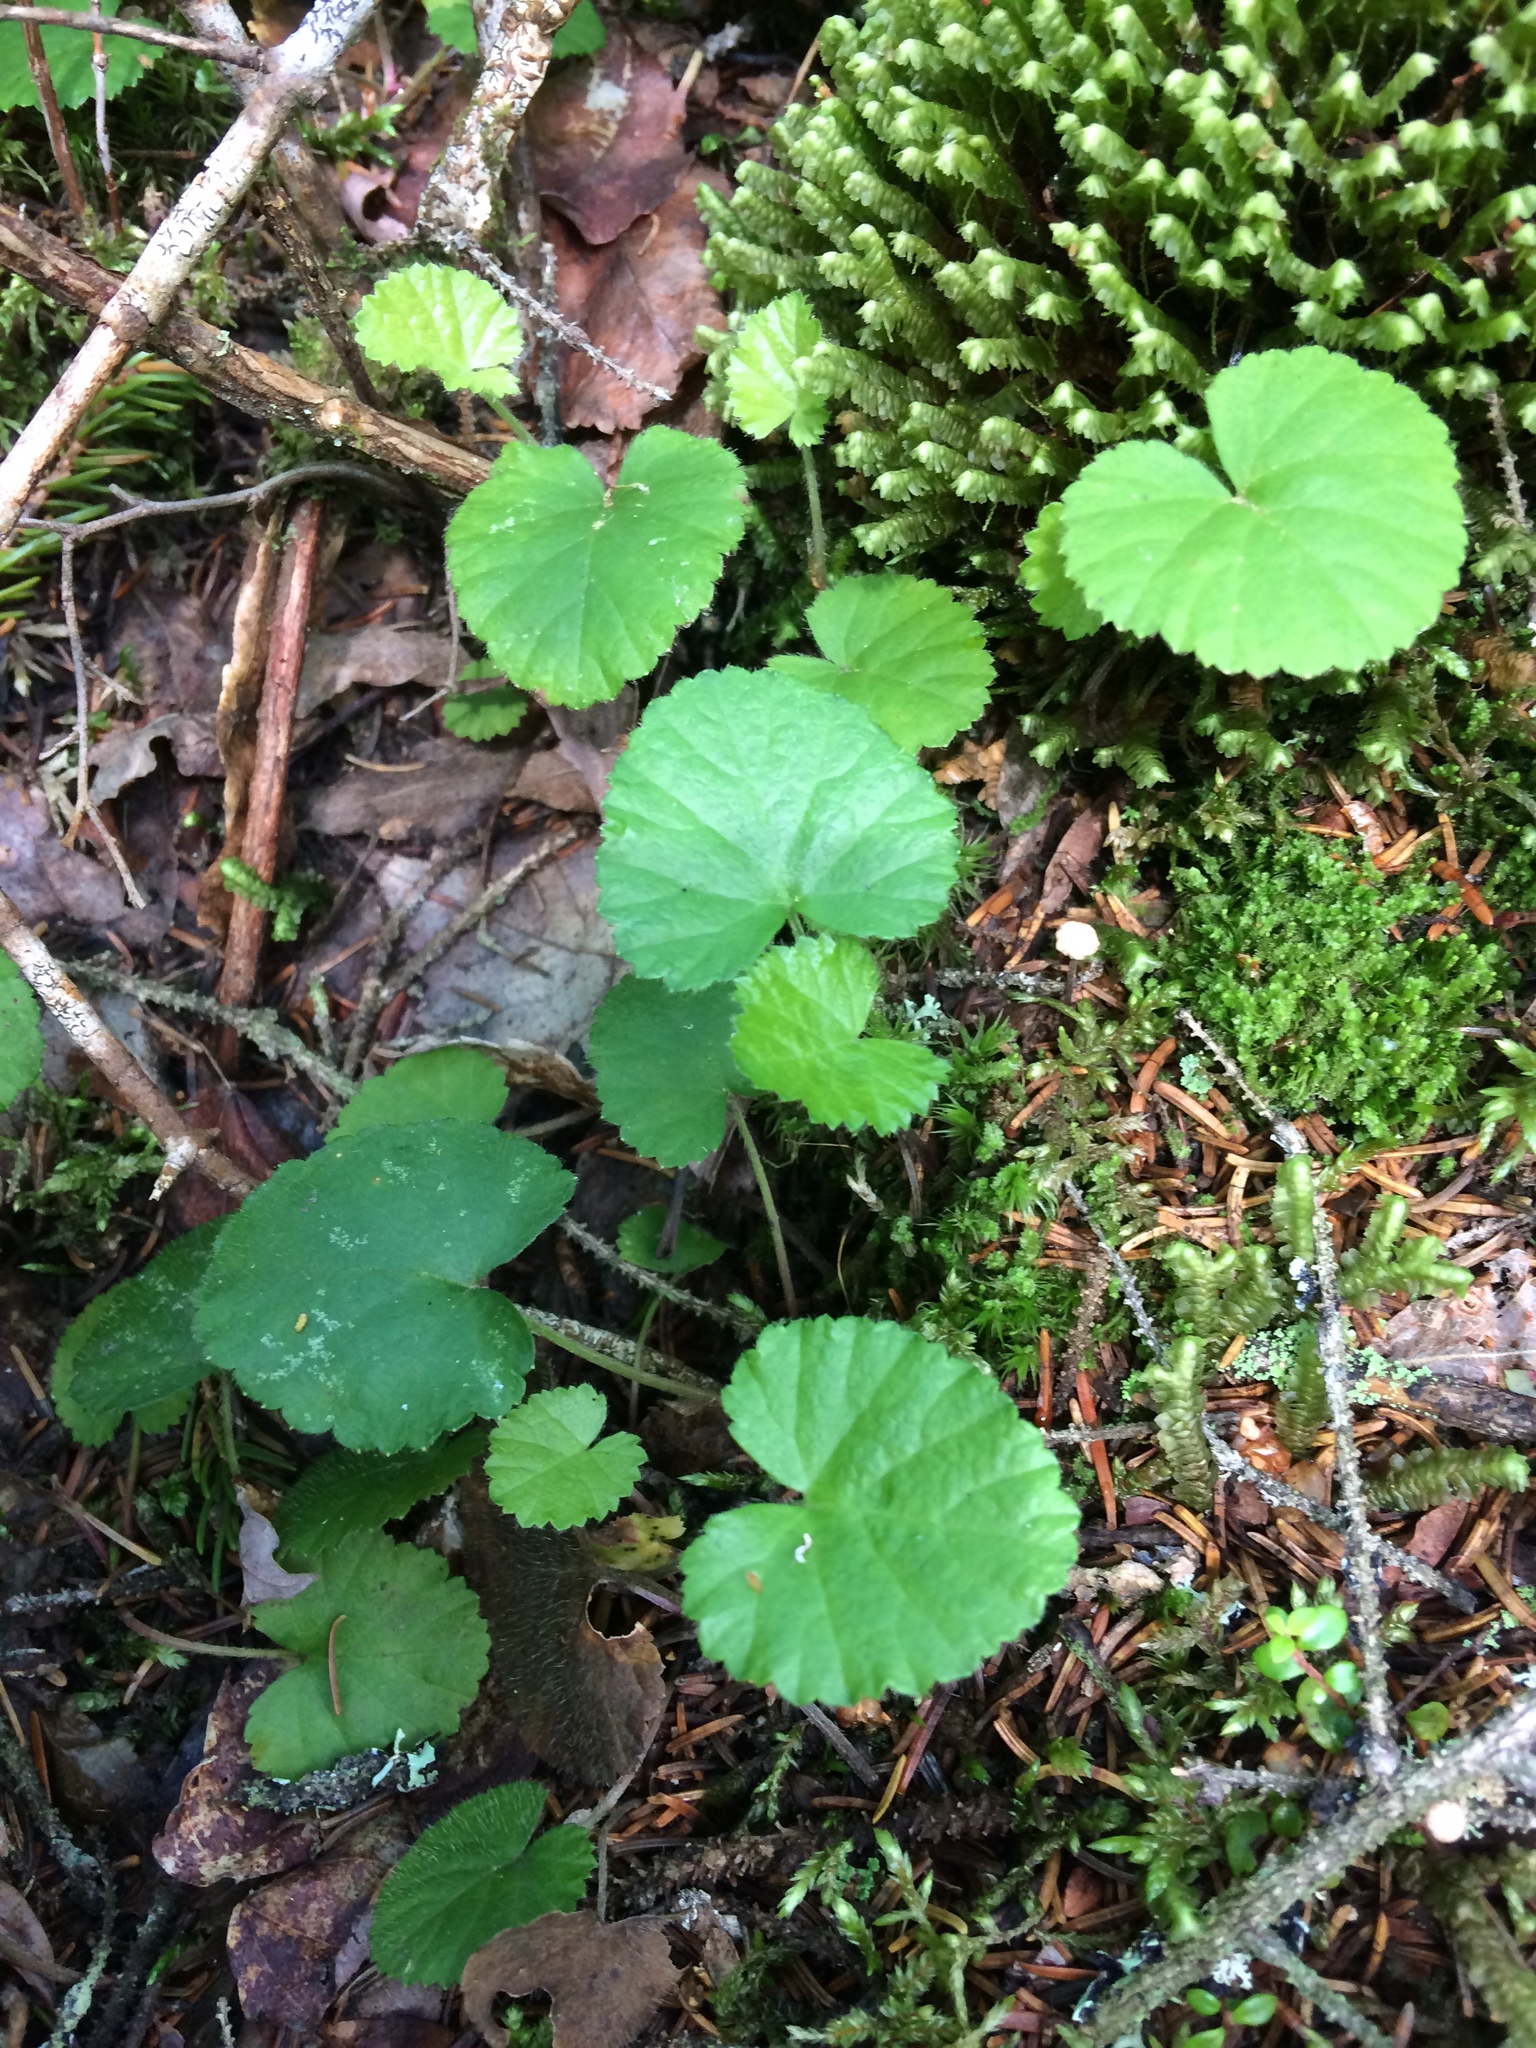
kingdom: Plantae
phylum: Tracheophyta
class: Magnoliopsida
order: Rosales
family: Rosaceae
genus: Dalibarda
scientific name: Dalibarda repens
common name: Dewdrop
